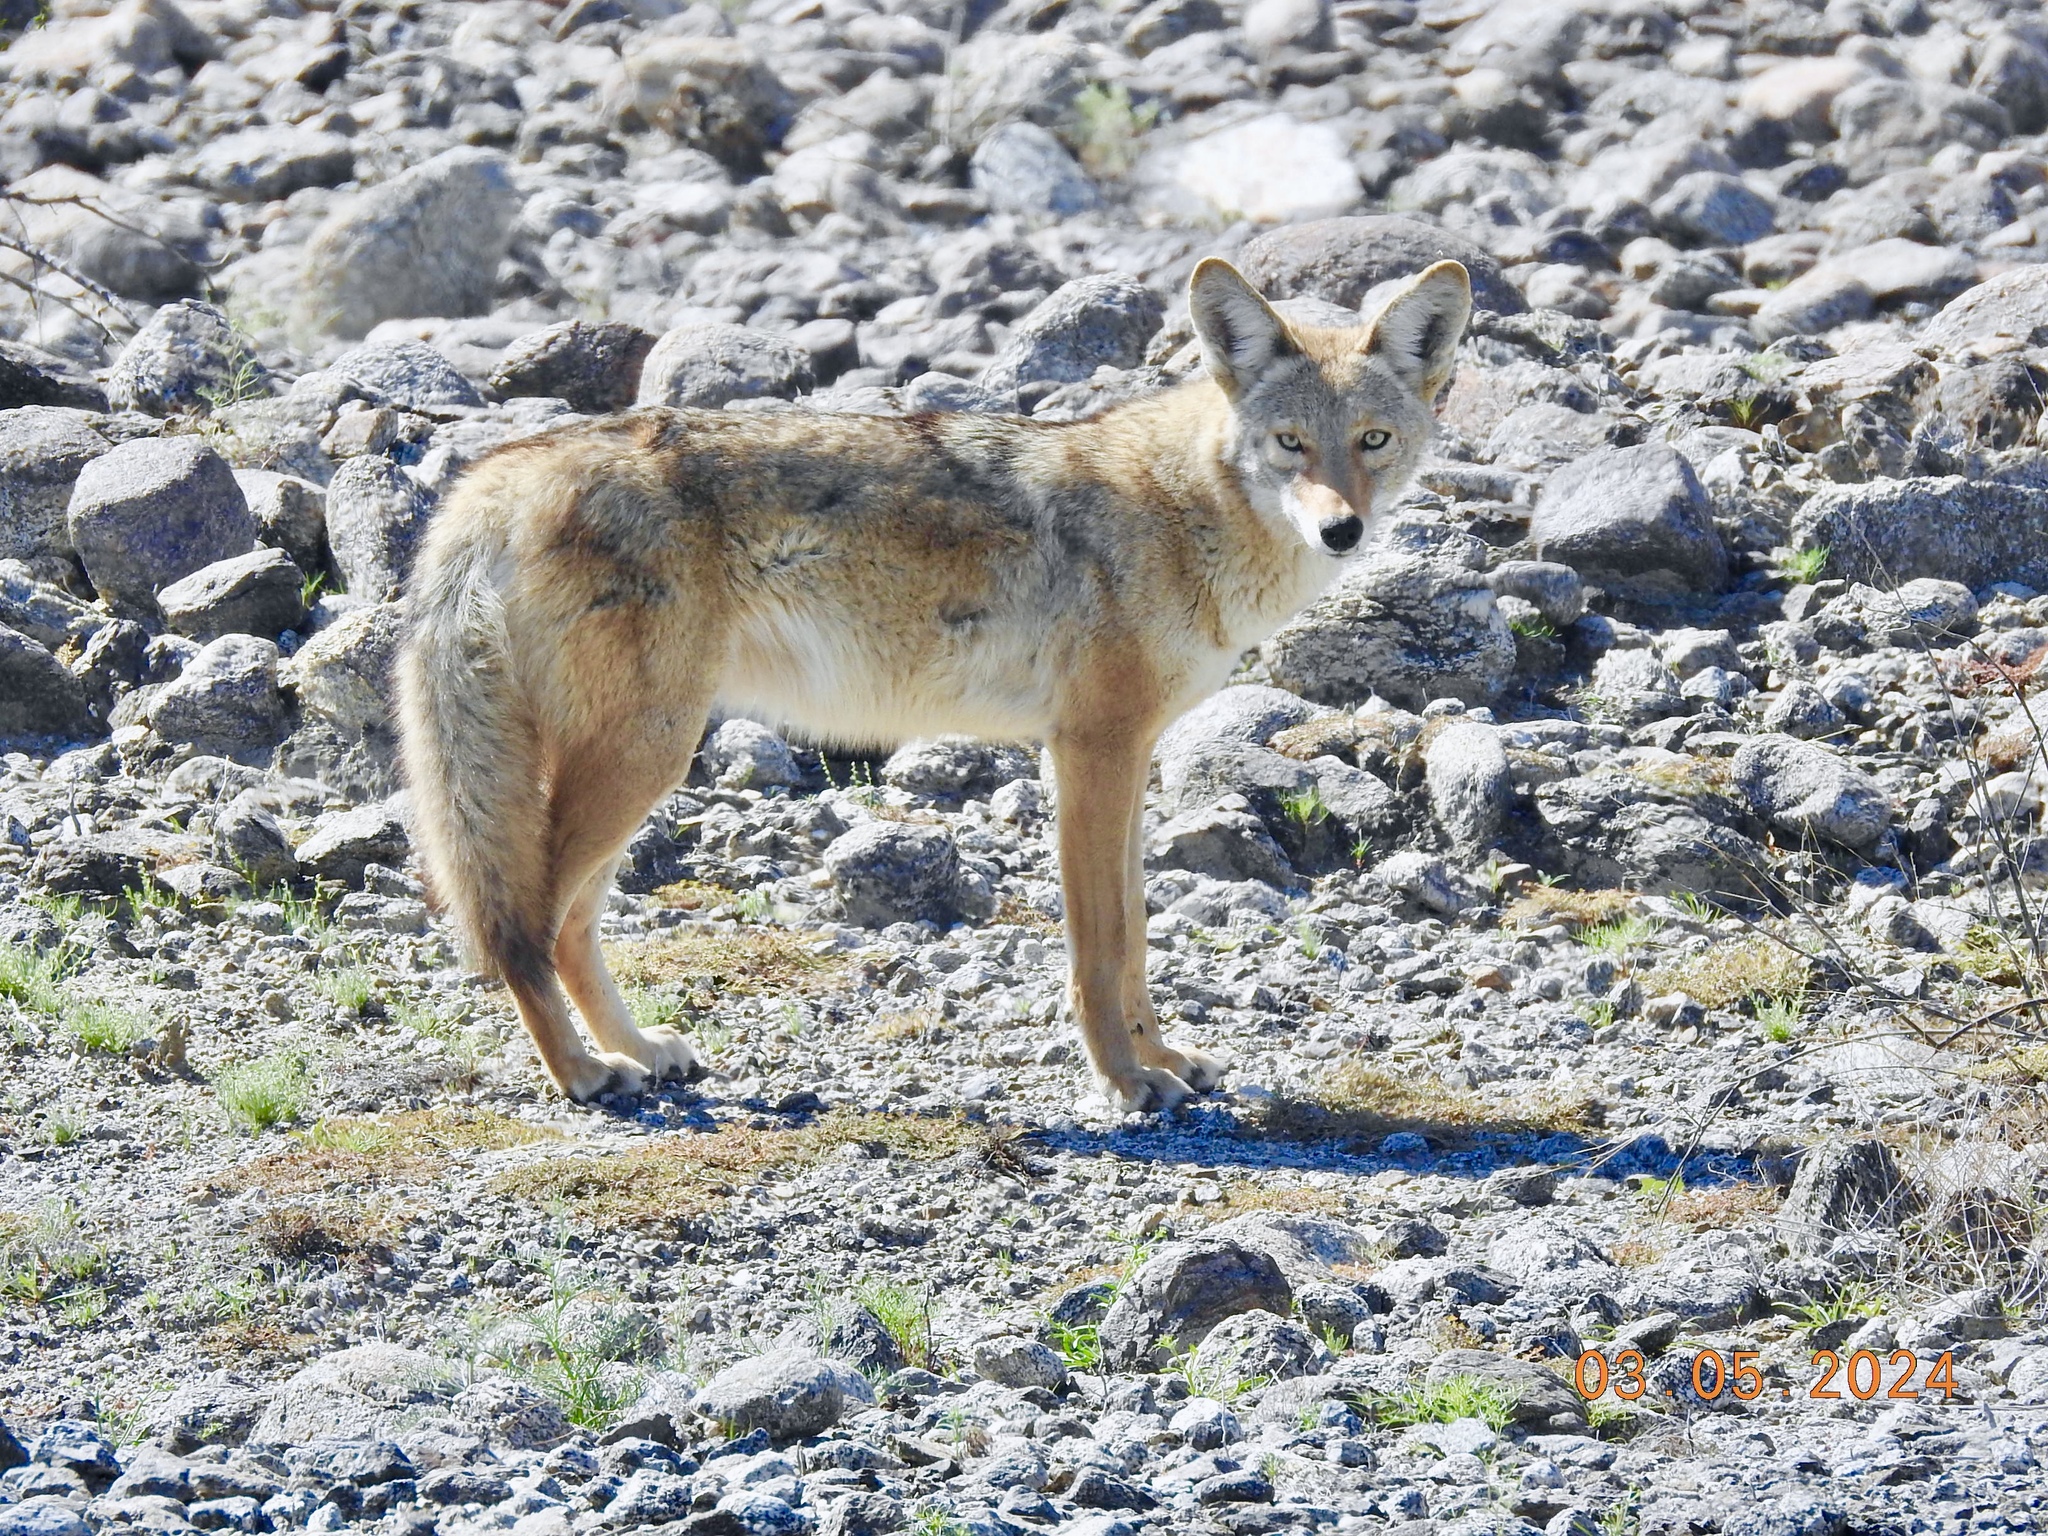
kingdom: Animalia
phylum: Chordata
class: Mammalia
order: Carnivora
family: Canidae
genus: Canis
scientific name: Canis latrans
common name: Coyote
